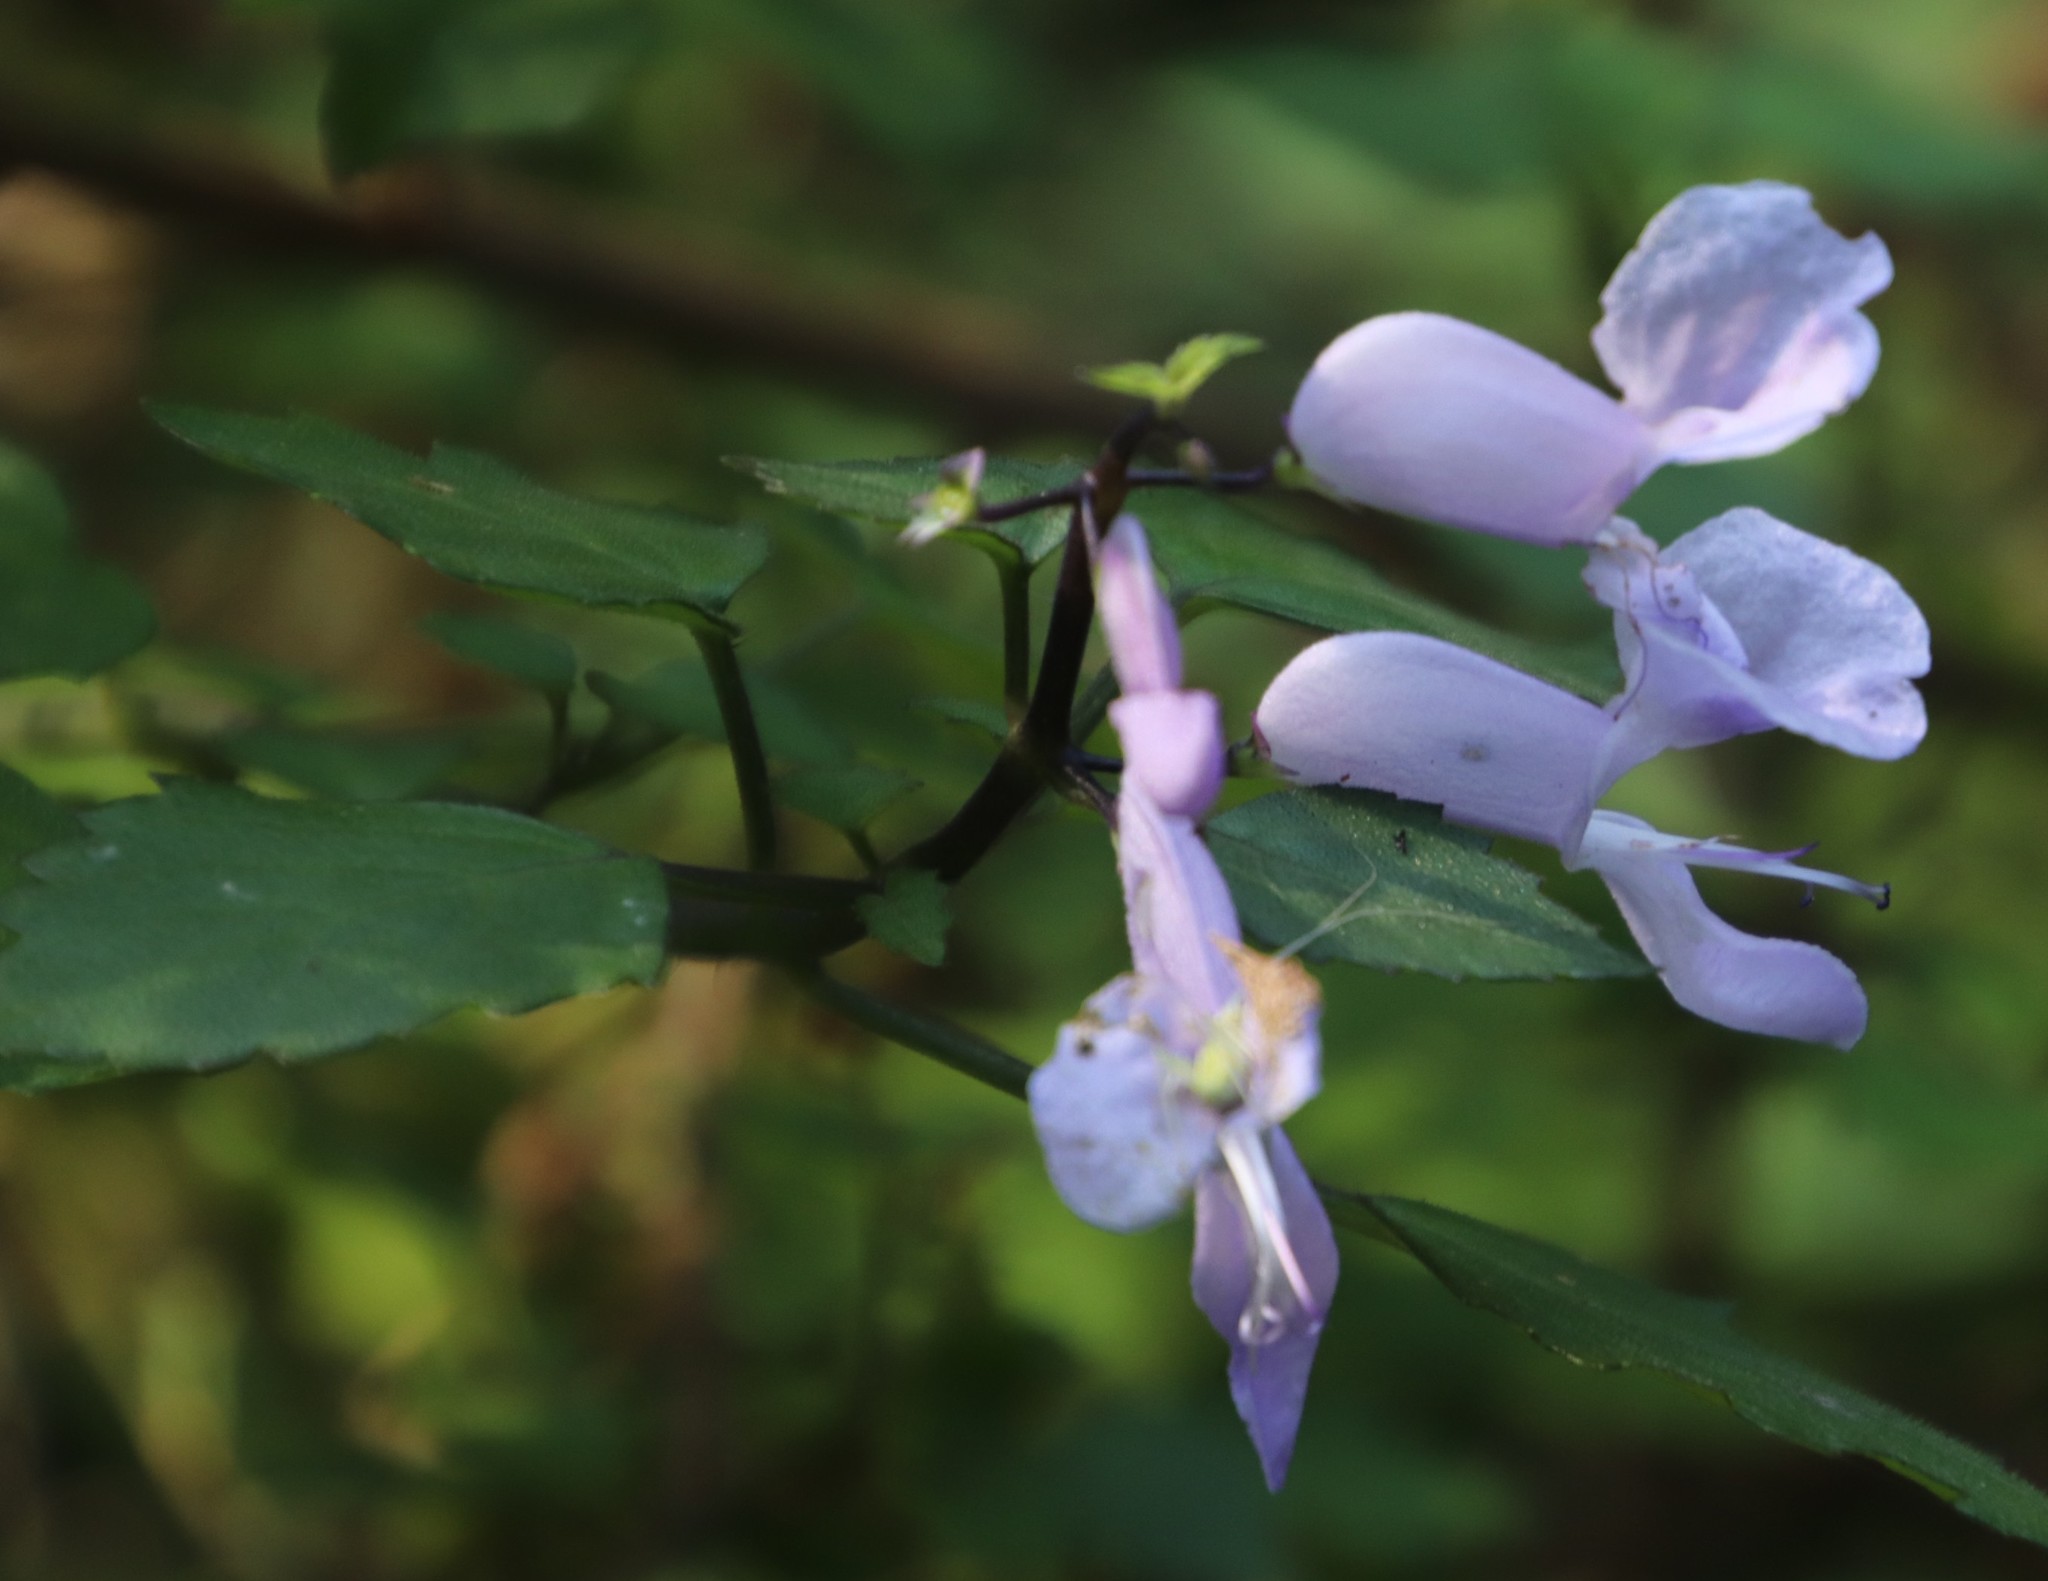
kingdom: Plantae
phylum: Tracheophyta
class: Magnoliopsida
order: Lamiales
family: Lamiaceae
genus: Plectranthus
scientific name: Plectranthus saccatus
